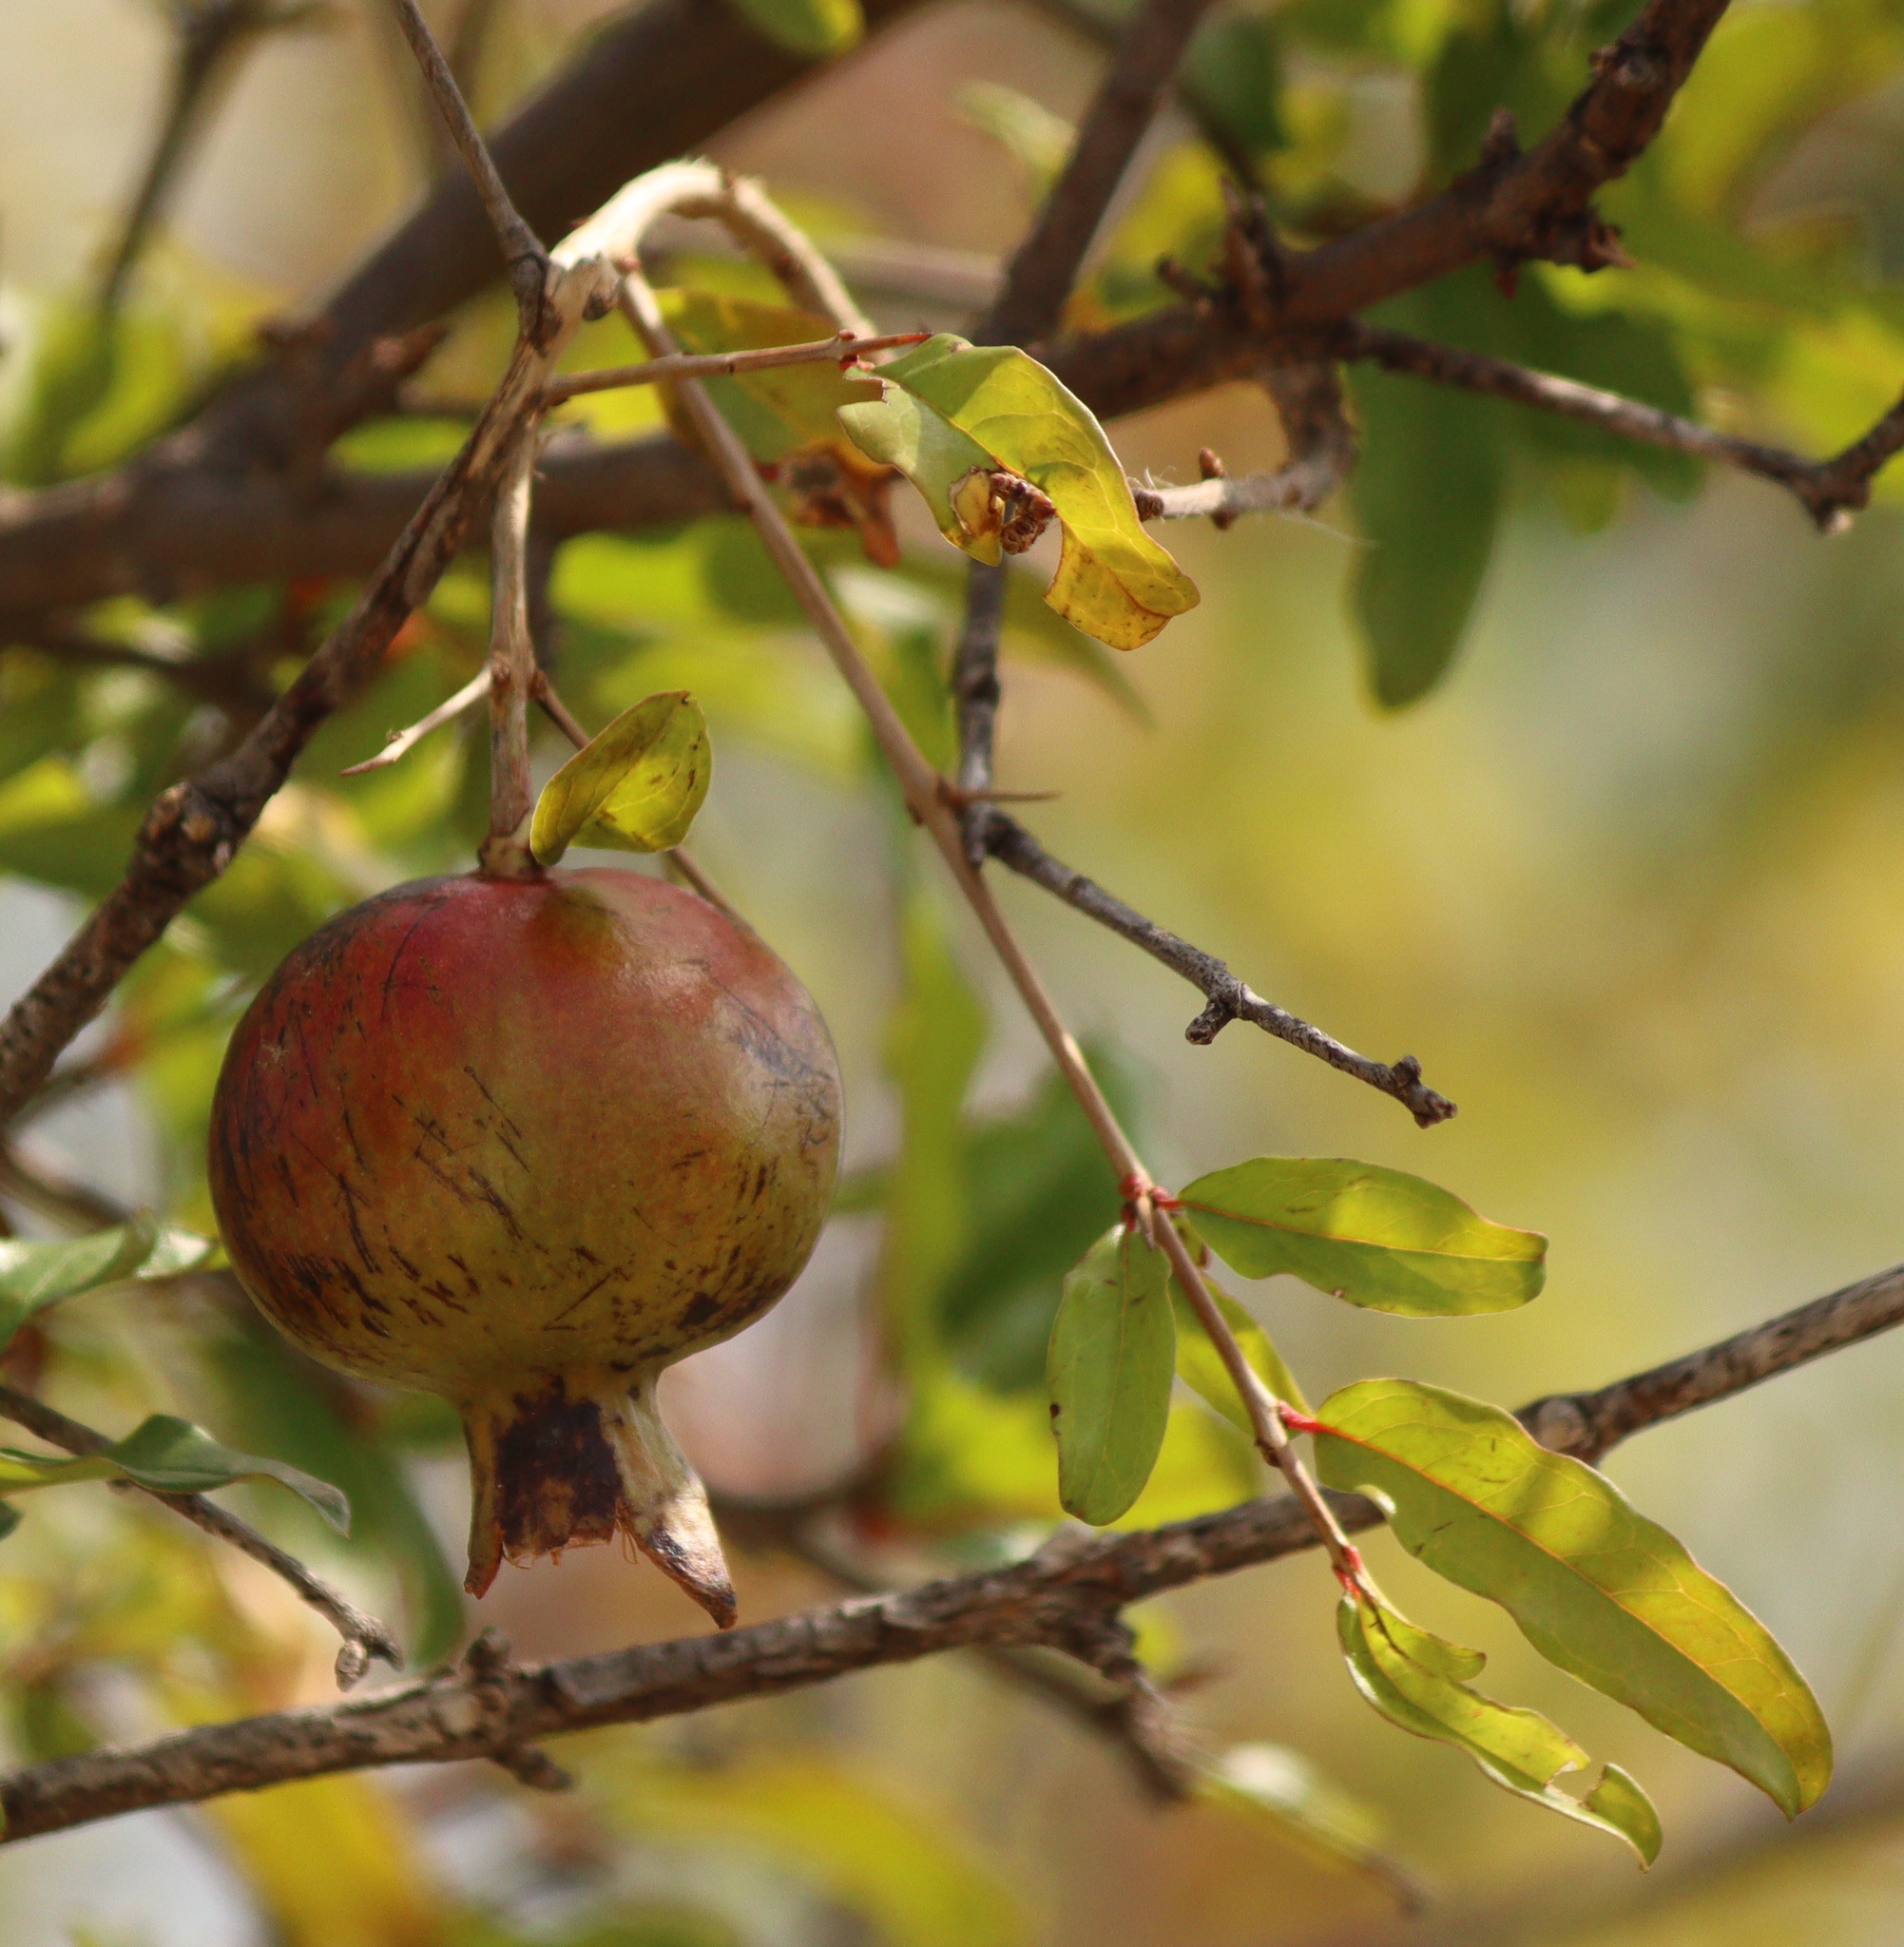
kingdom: Plantae
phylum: Tracheophyta
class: Magnoliopsida
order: Myrtales
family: Lythraceae
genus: Punica
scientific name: Punica granatum
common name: Pomegranate
